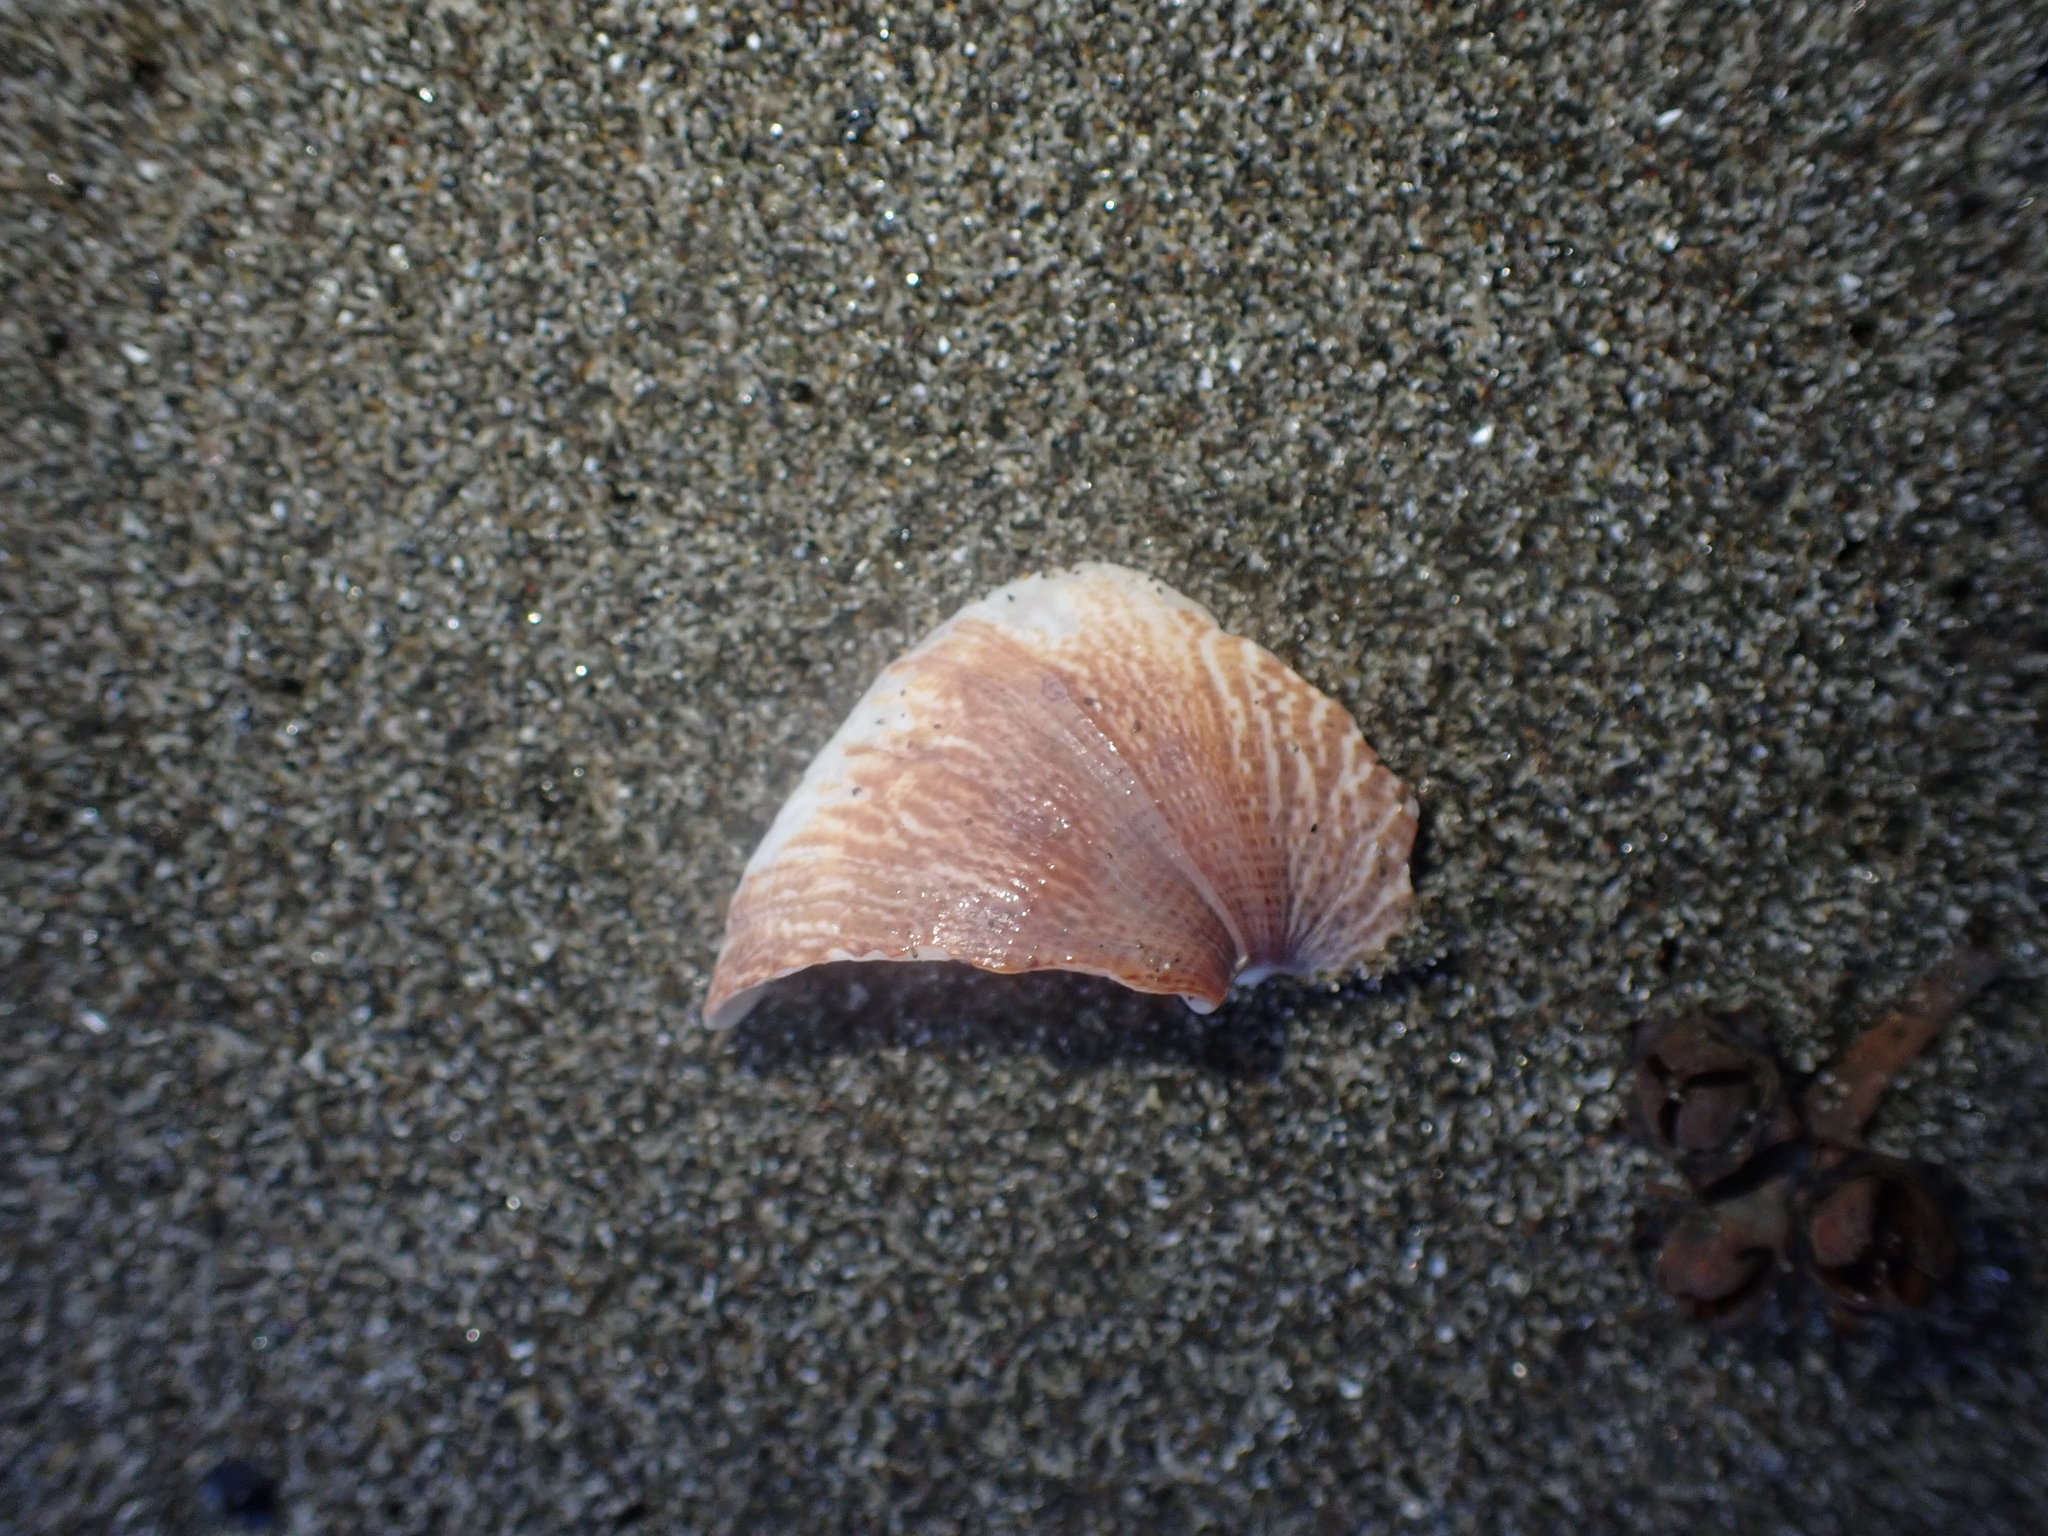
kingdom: Animalia
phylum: Mollusca
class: Gastropoda
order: Trochida
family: Calliostomatidae
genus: Maurea
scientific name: Maurea tigris
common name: Tiger maurea
